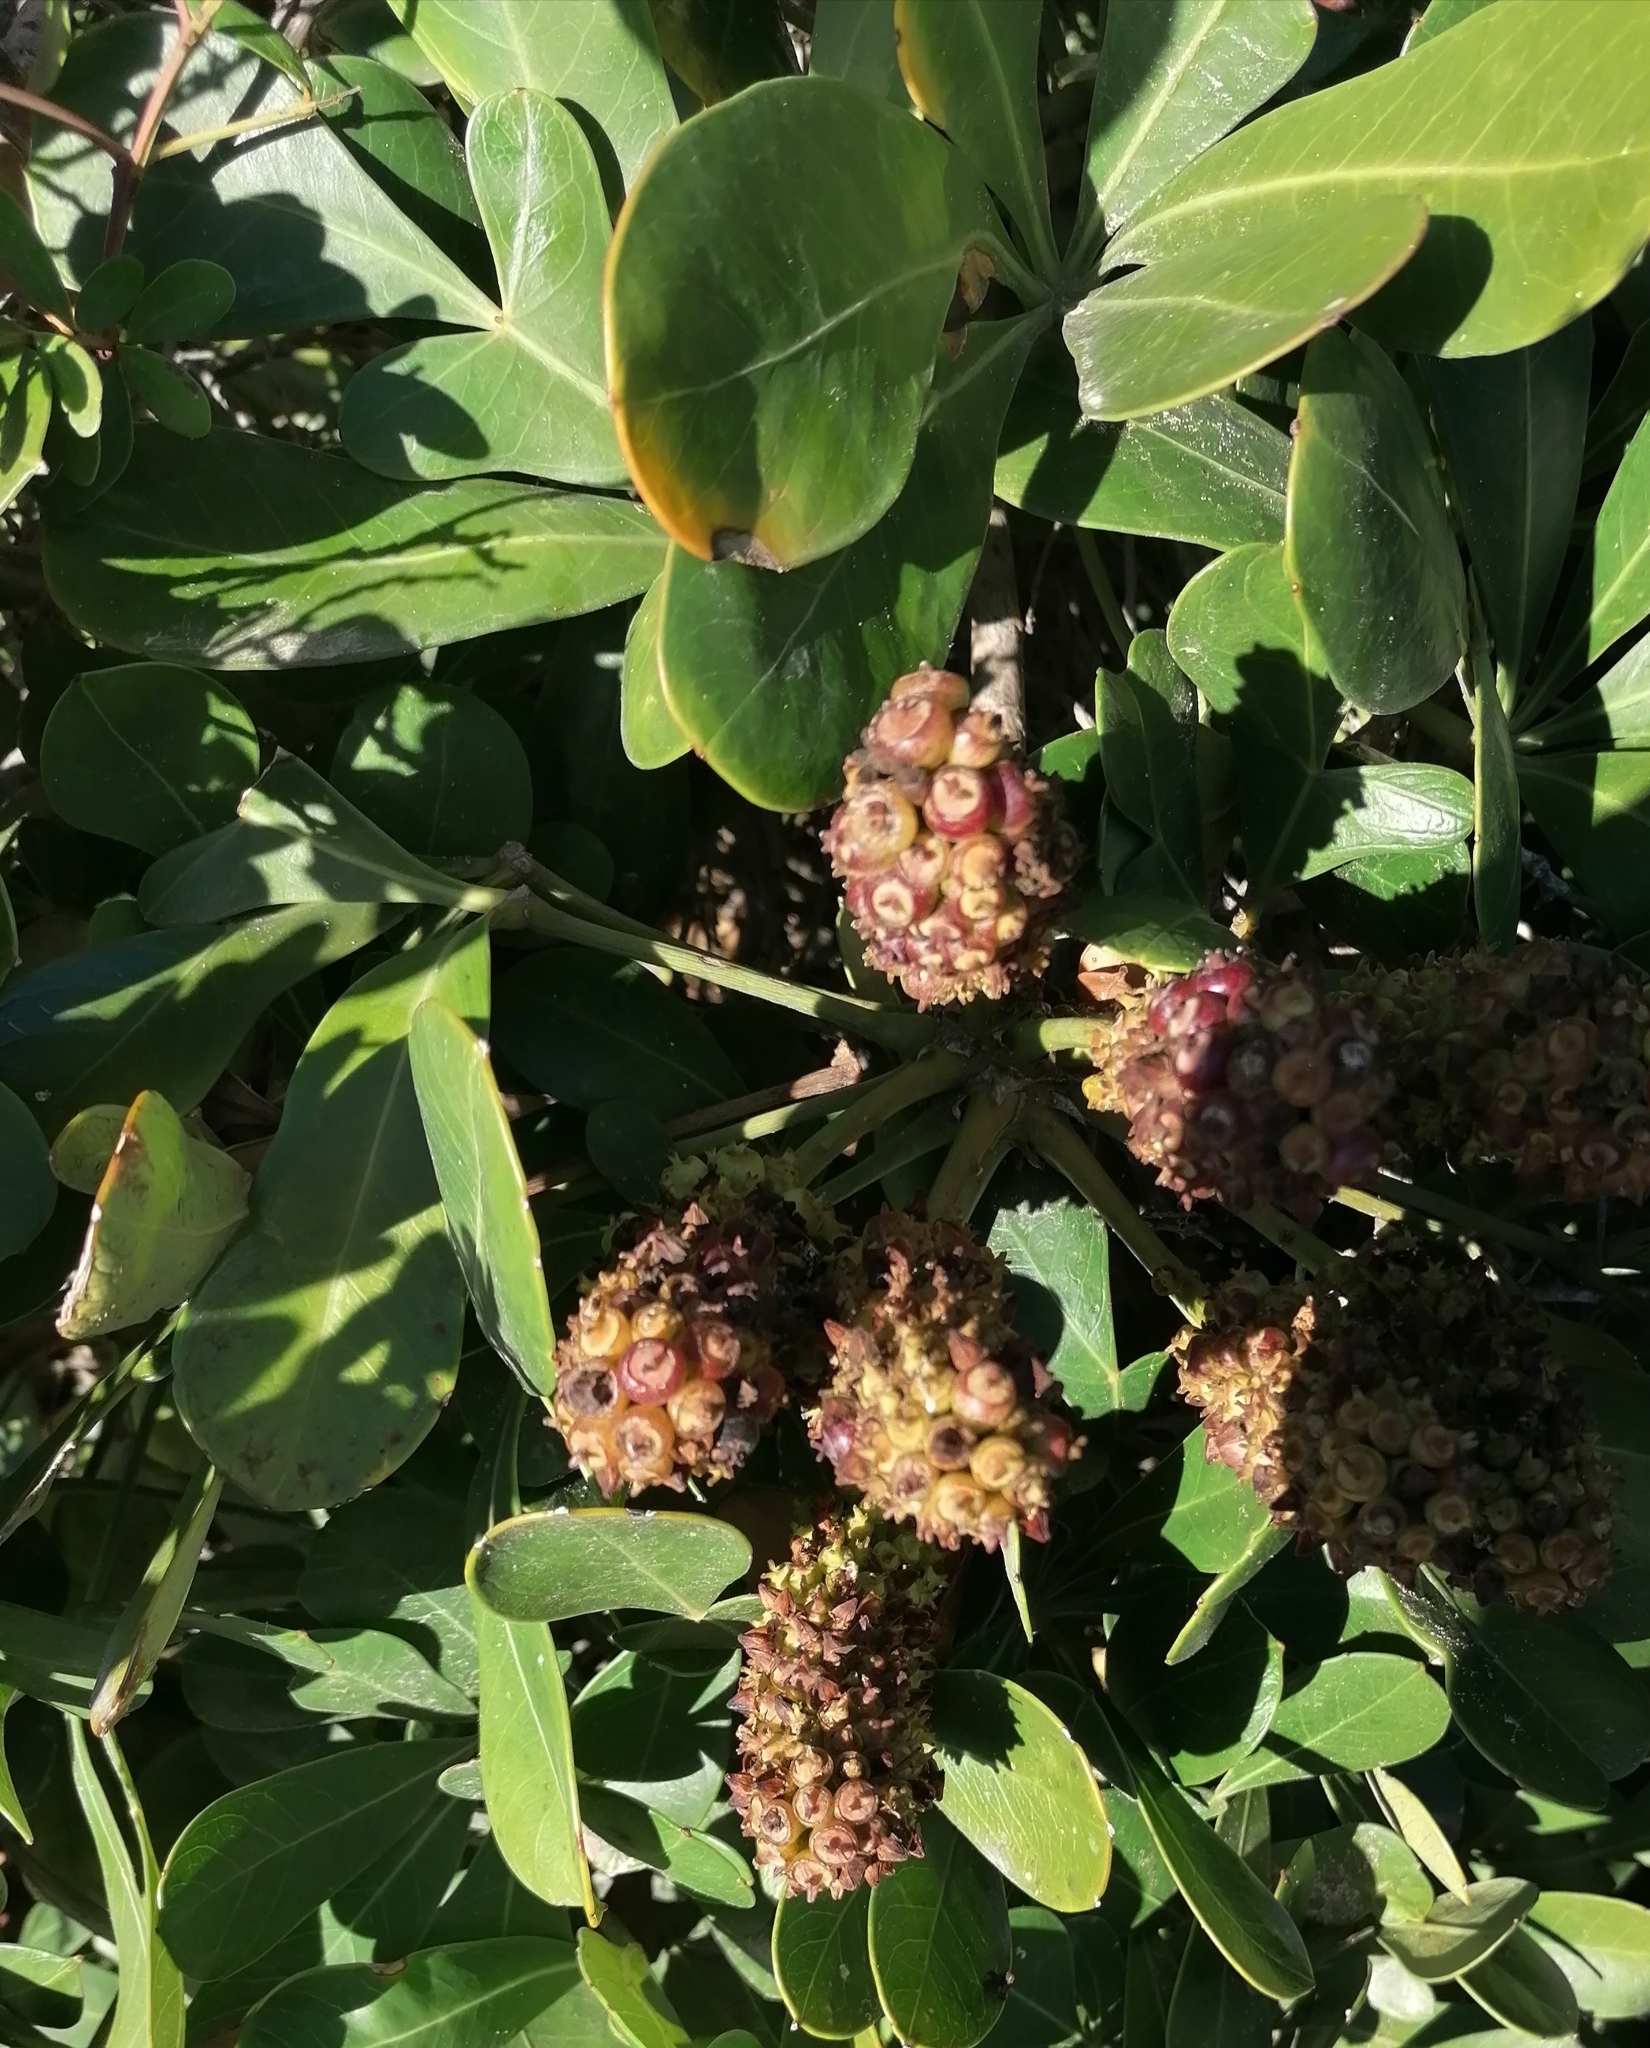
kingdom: Plantae
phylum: Tracheophyta
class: Magnoliopsida
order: Apiales
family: Araliaceae
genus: Cussonia
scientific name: Cussonia thyrsiflora
